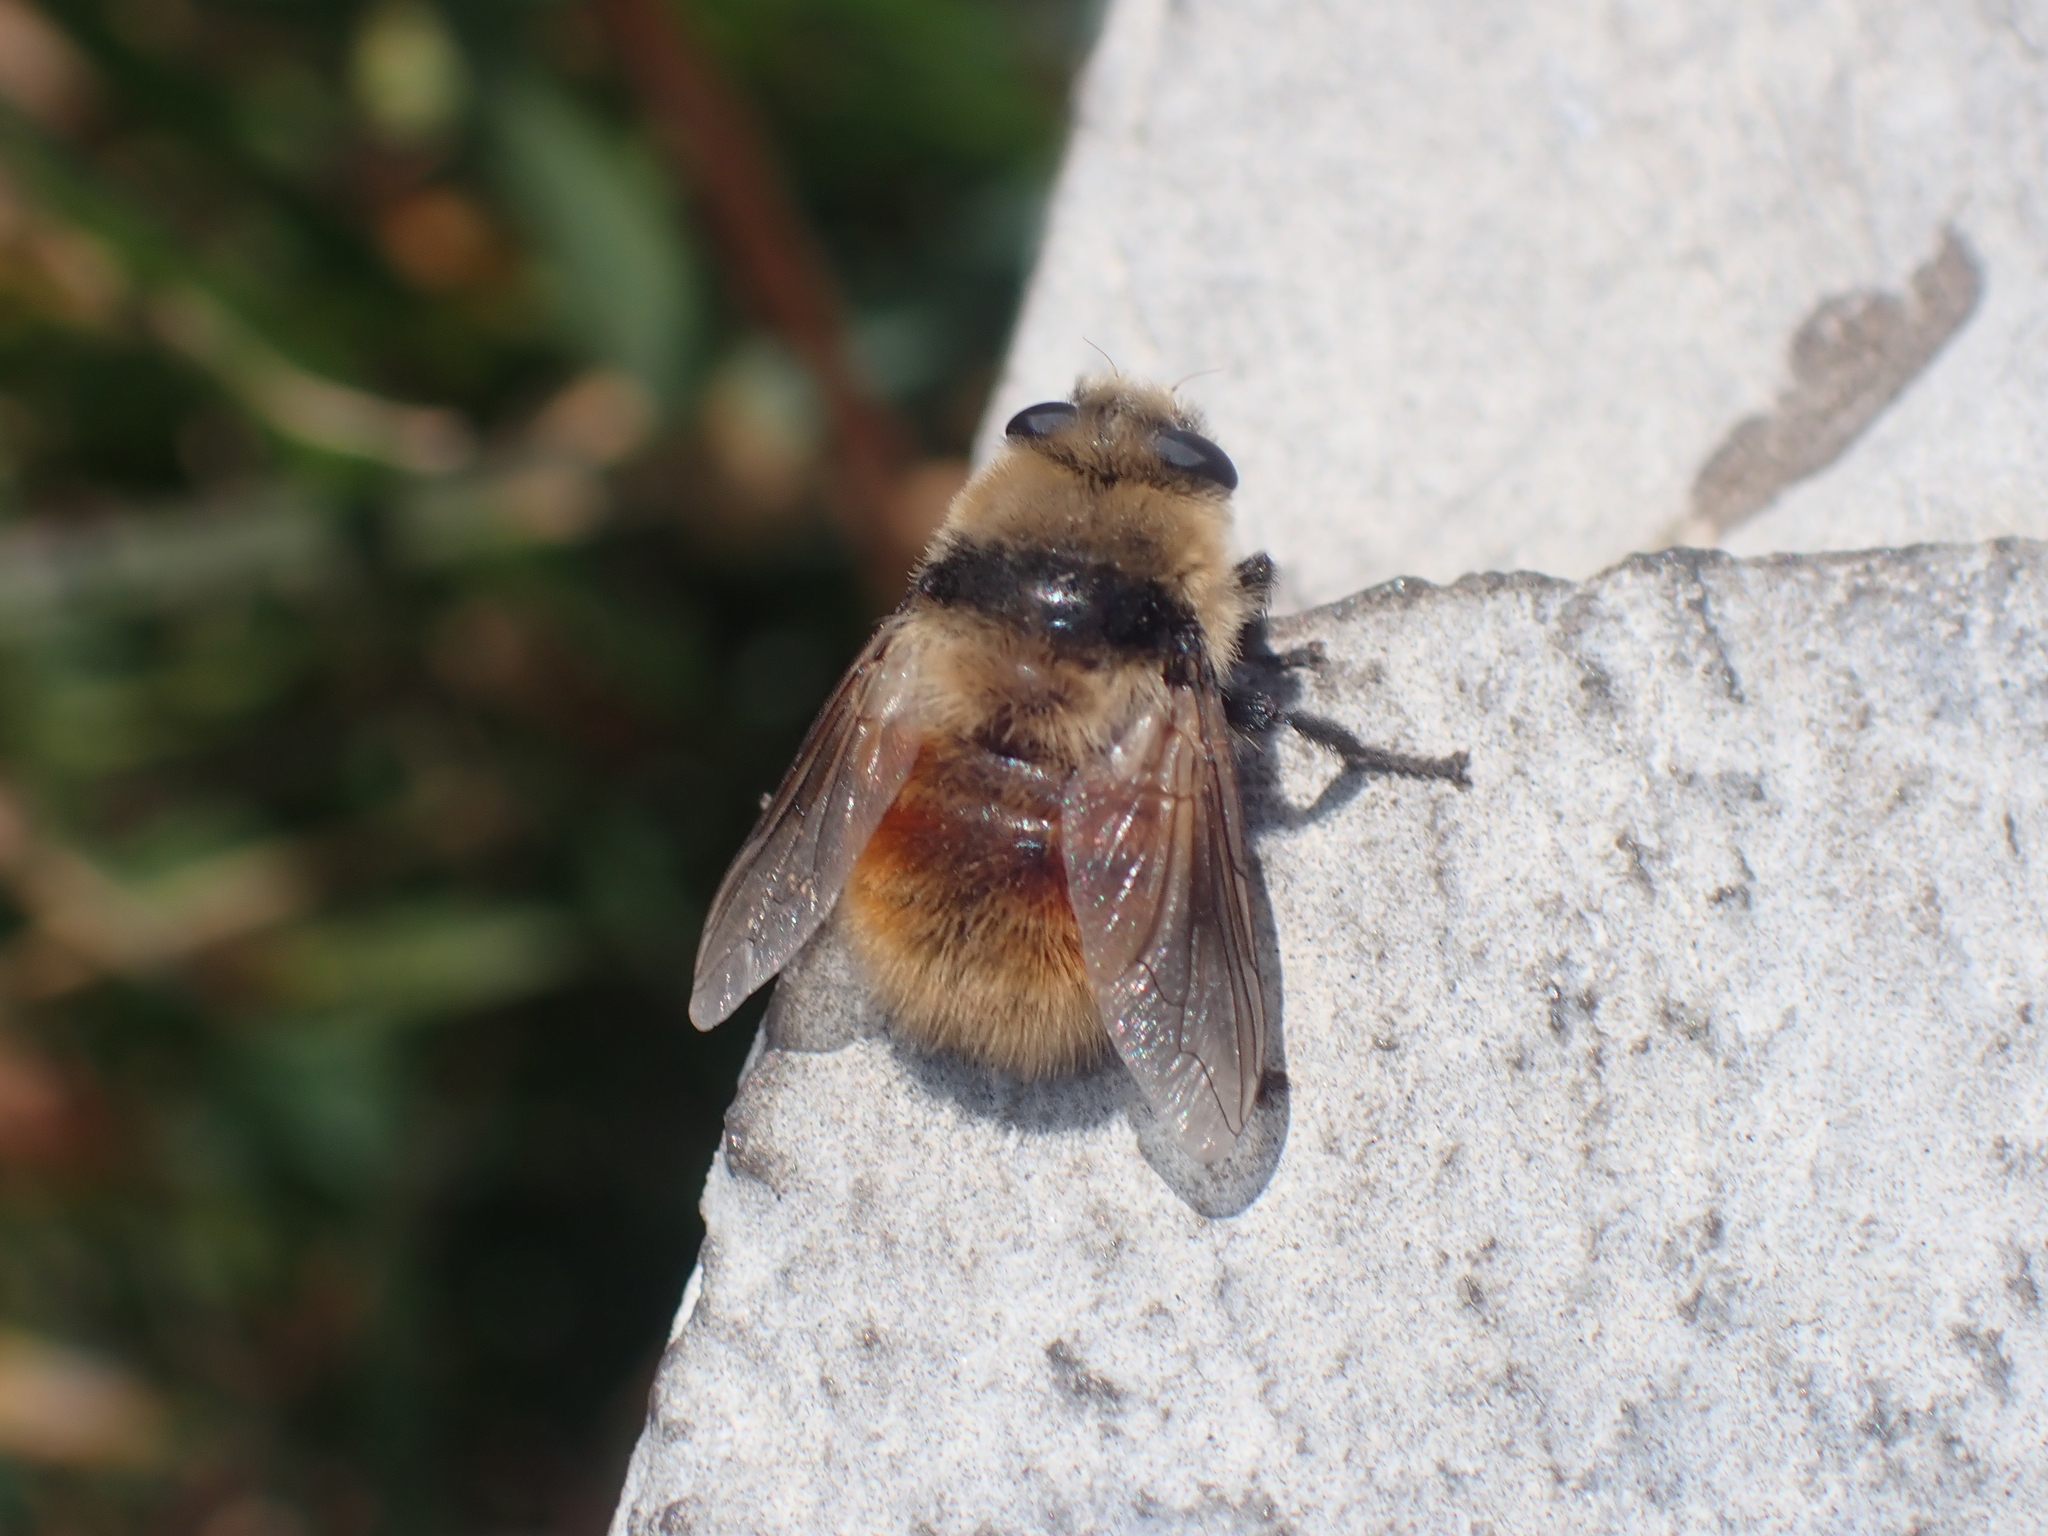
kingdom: Animalia
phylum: Arthropoda
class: Insecta
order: Diptera
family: Oestridae
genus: Cephenemyia
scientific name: Cephenemyia stimulator
